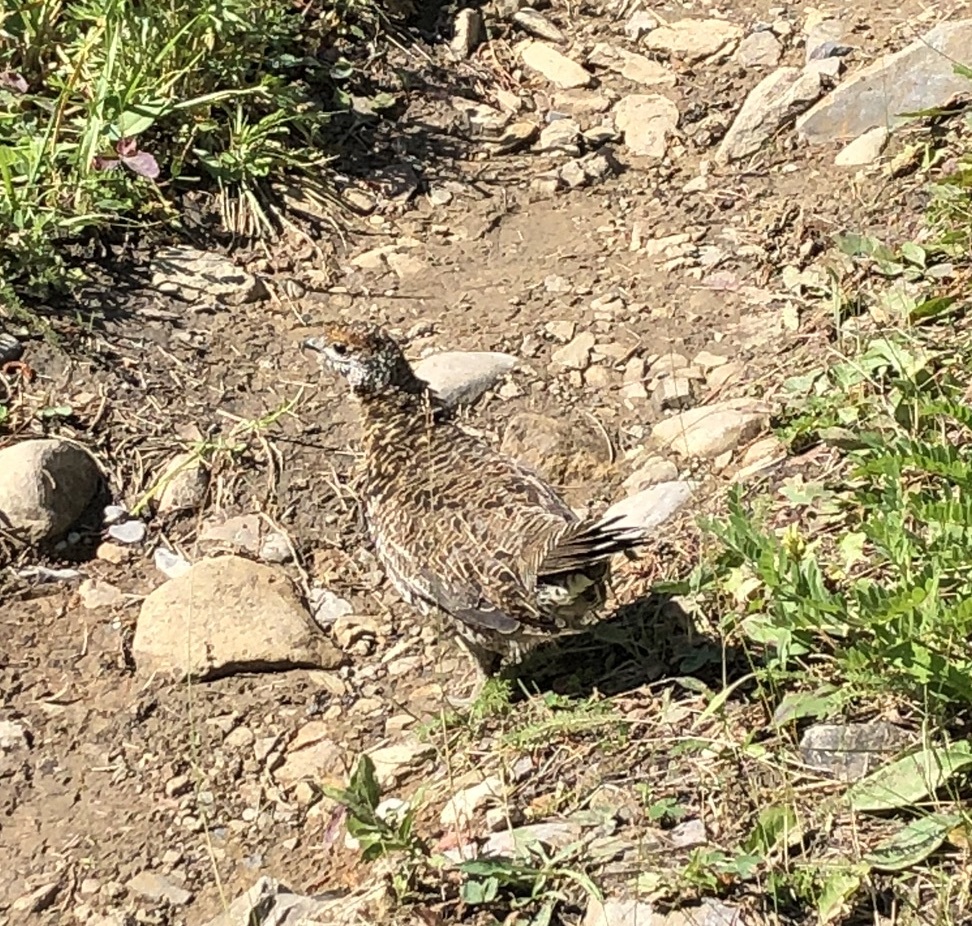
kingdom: Animalia
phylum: Chordata
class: Aves
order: Galliformes
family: Phasianidae
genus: Canachites
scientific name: Canachites canadensis
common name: Spruce grouse
